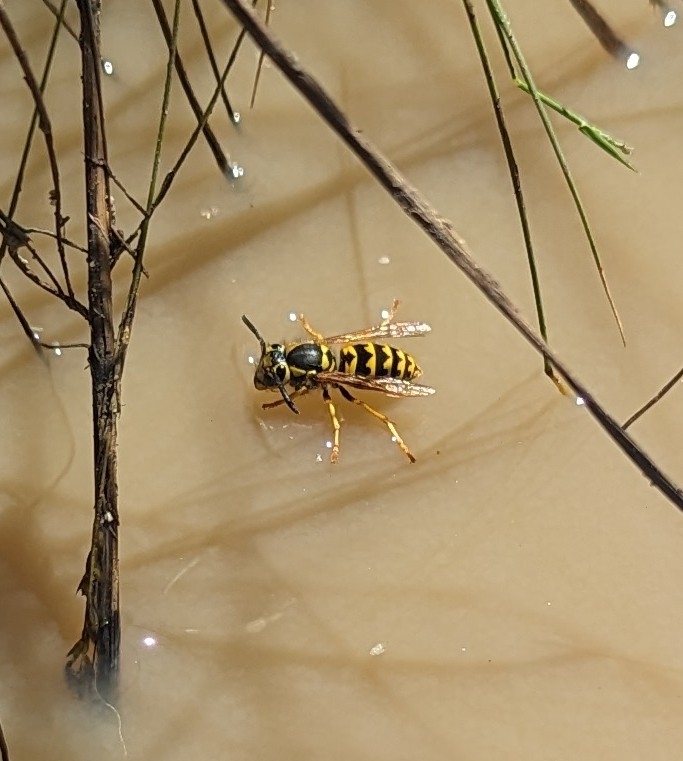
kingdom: Animalia
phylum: Arthropoda
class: Insecta
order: Hymenoptera
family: Vespidae
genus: Vespula
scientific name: Vespula pensylvanica
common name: Western yellowjacket
